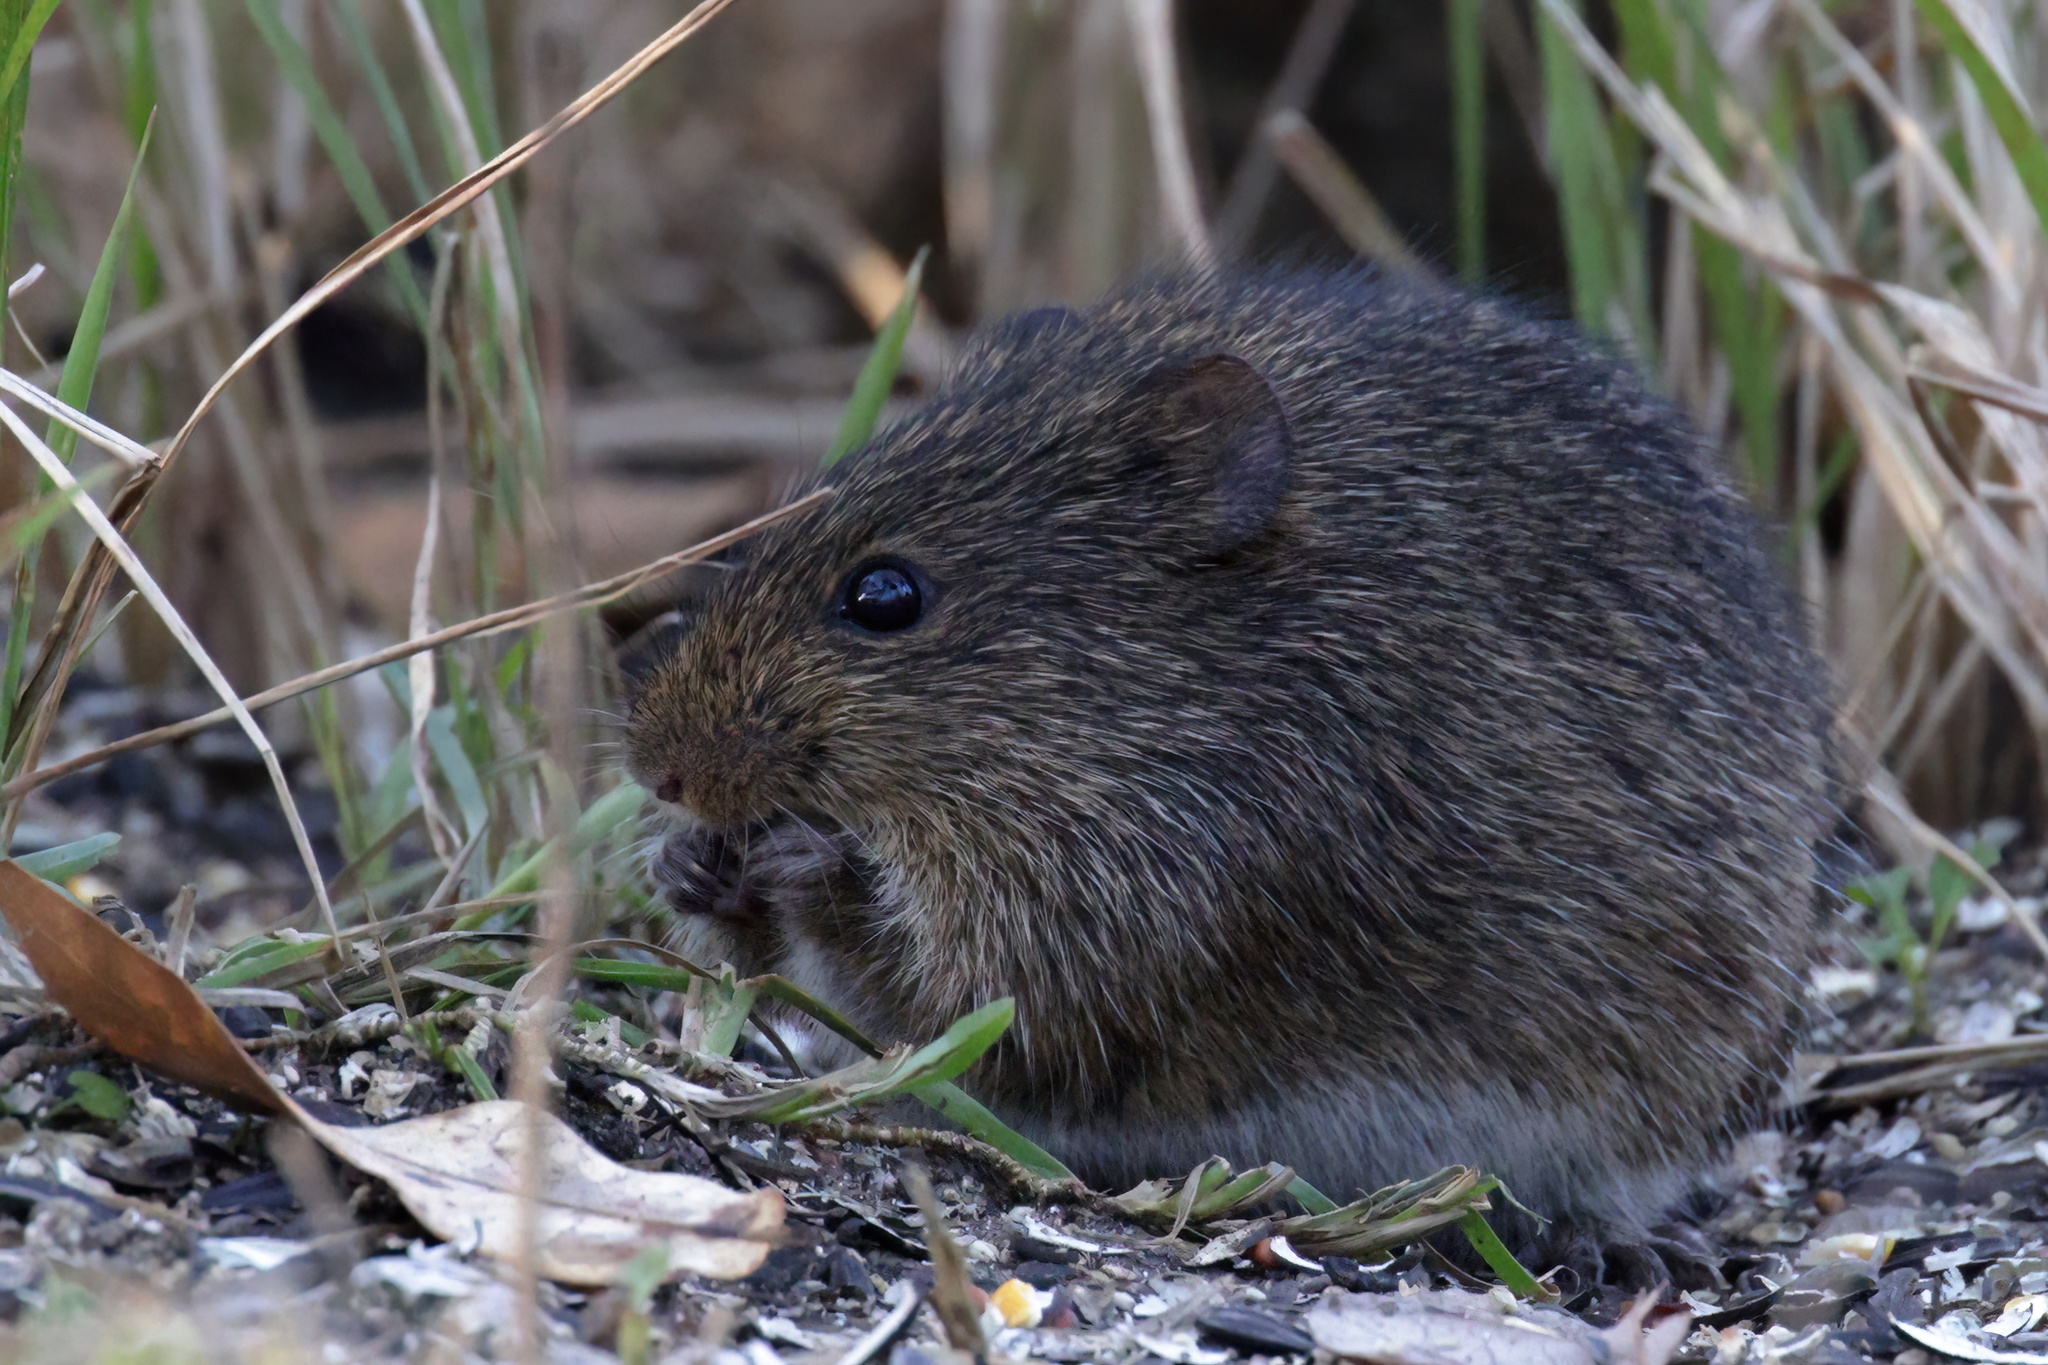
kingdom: Animalia
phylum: Chordata
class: Mammalia
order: Rodentia
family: Cricetidae
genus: Sigmodon
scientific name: Sigmodon hispidus
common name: Hispid cotton rat
